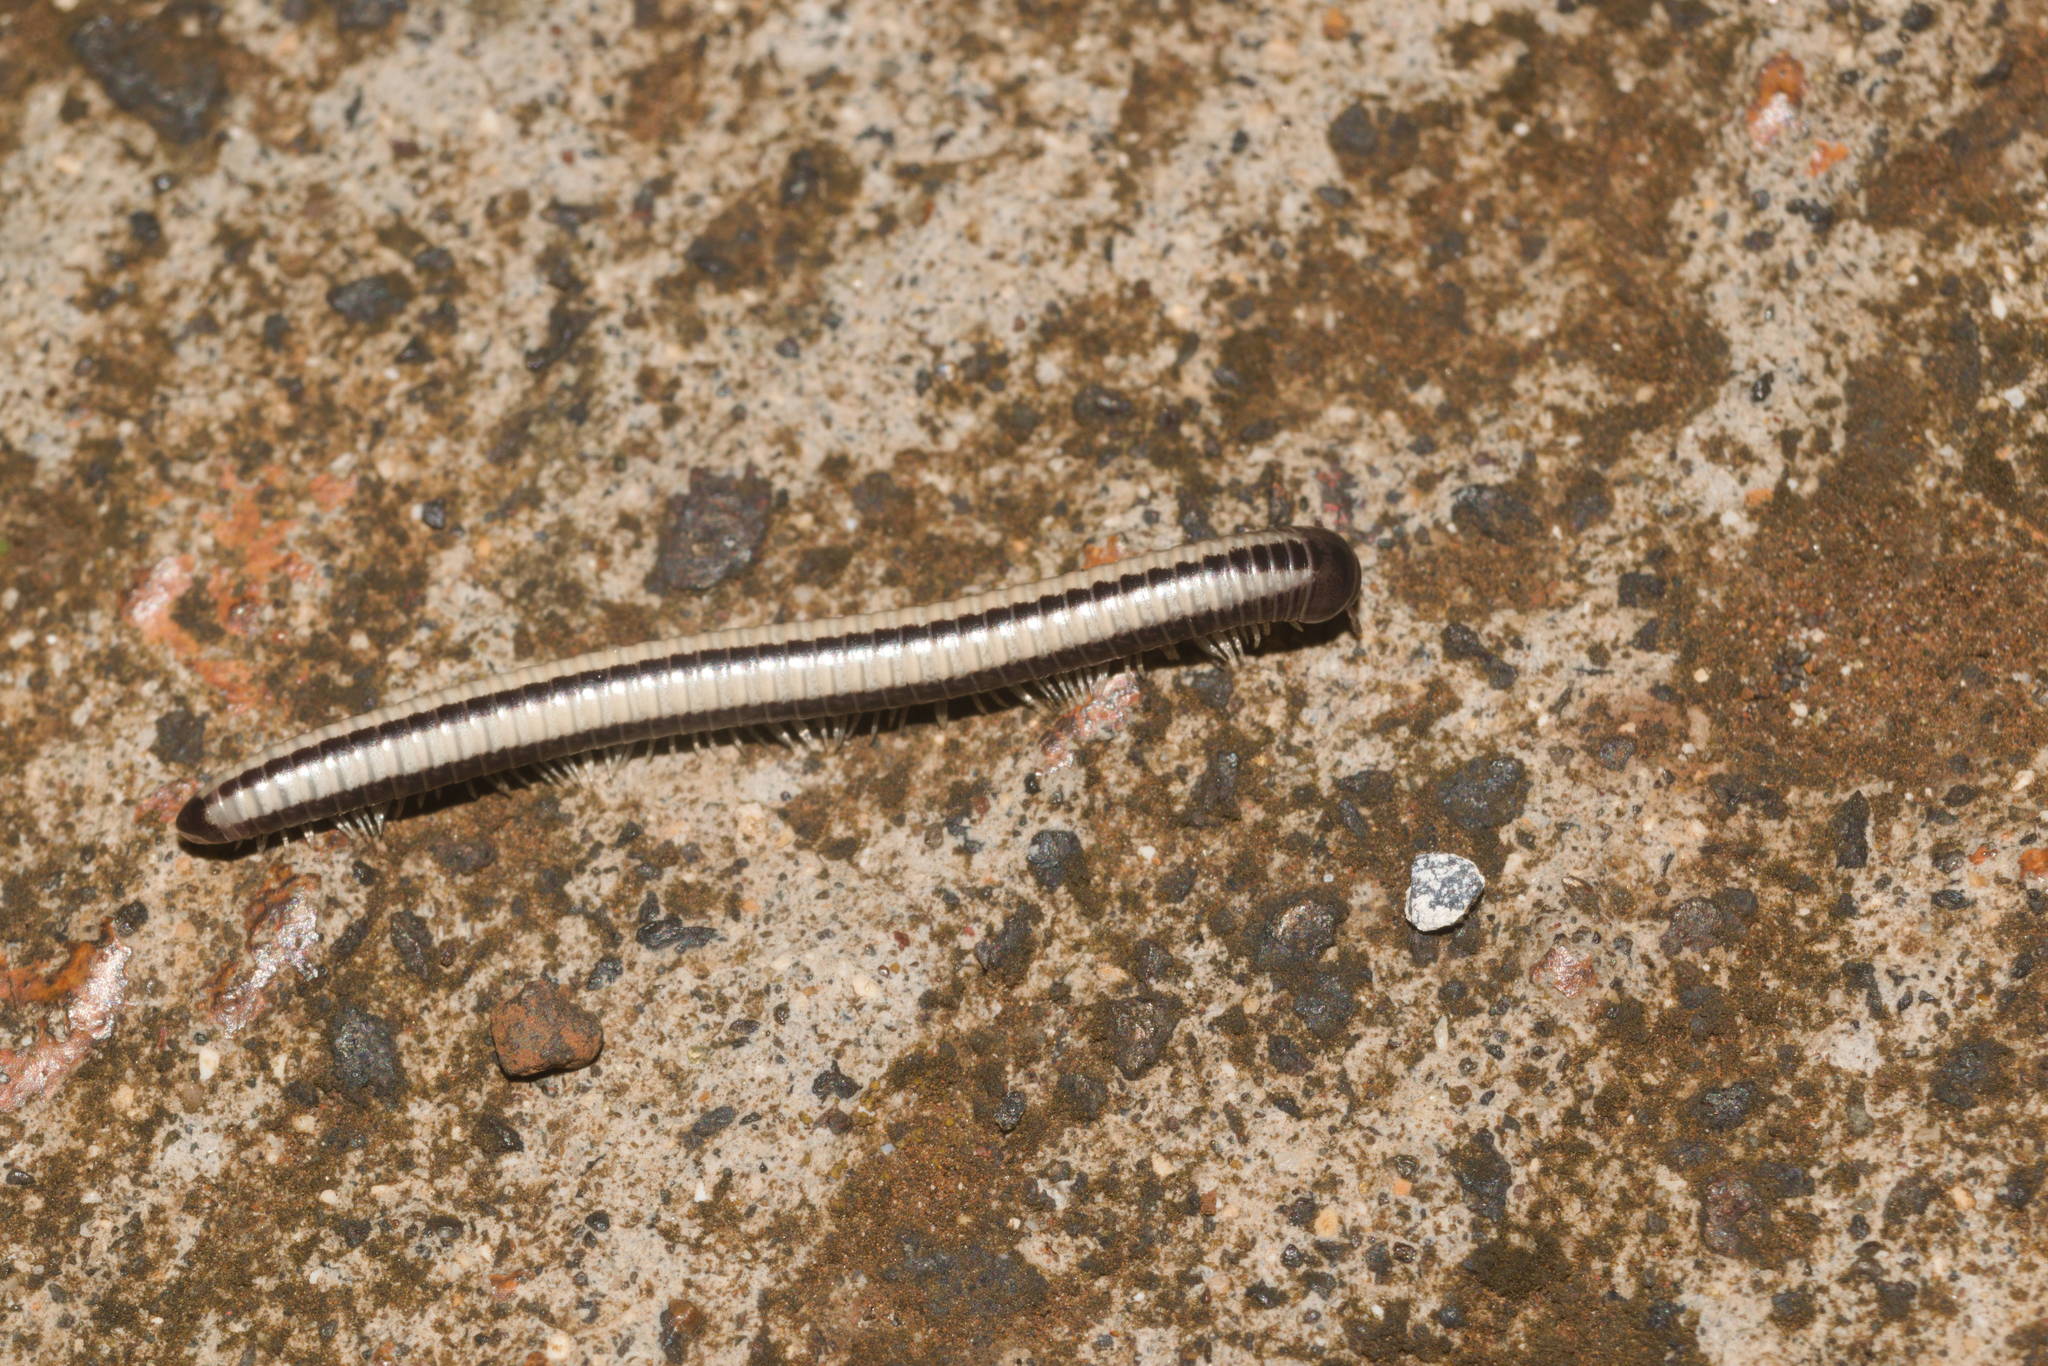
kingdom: Animalia
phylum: Arthropoda
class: Diplopoda
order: Spirobolida
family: Spirobolellidae
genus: Spirobolellus
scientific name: Spirobolellus immigrans
